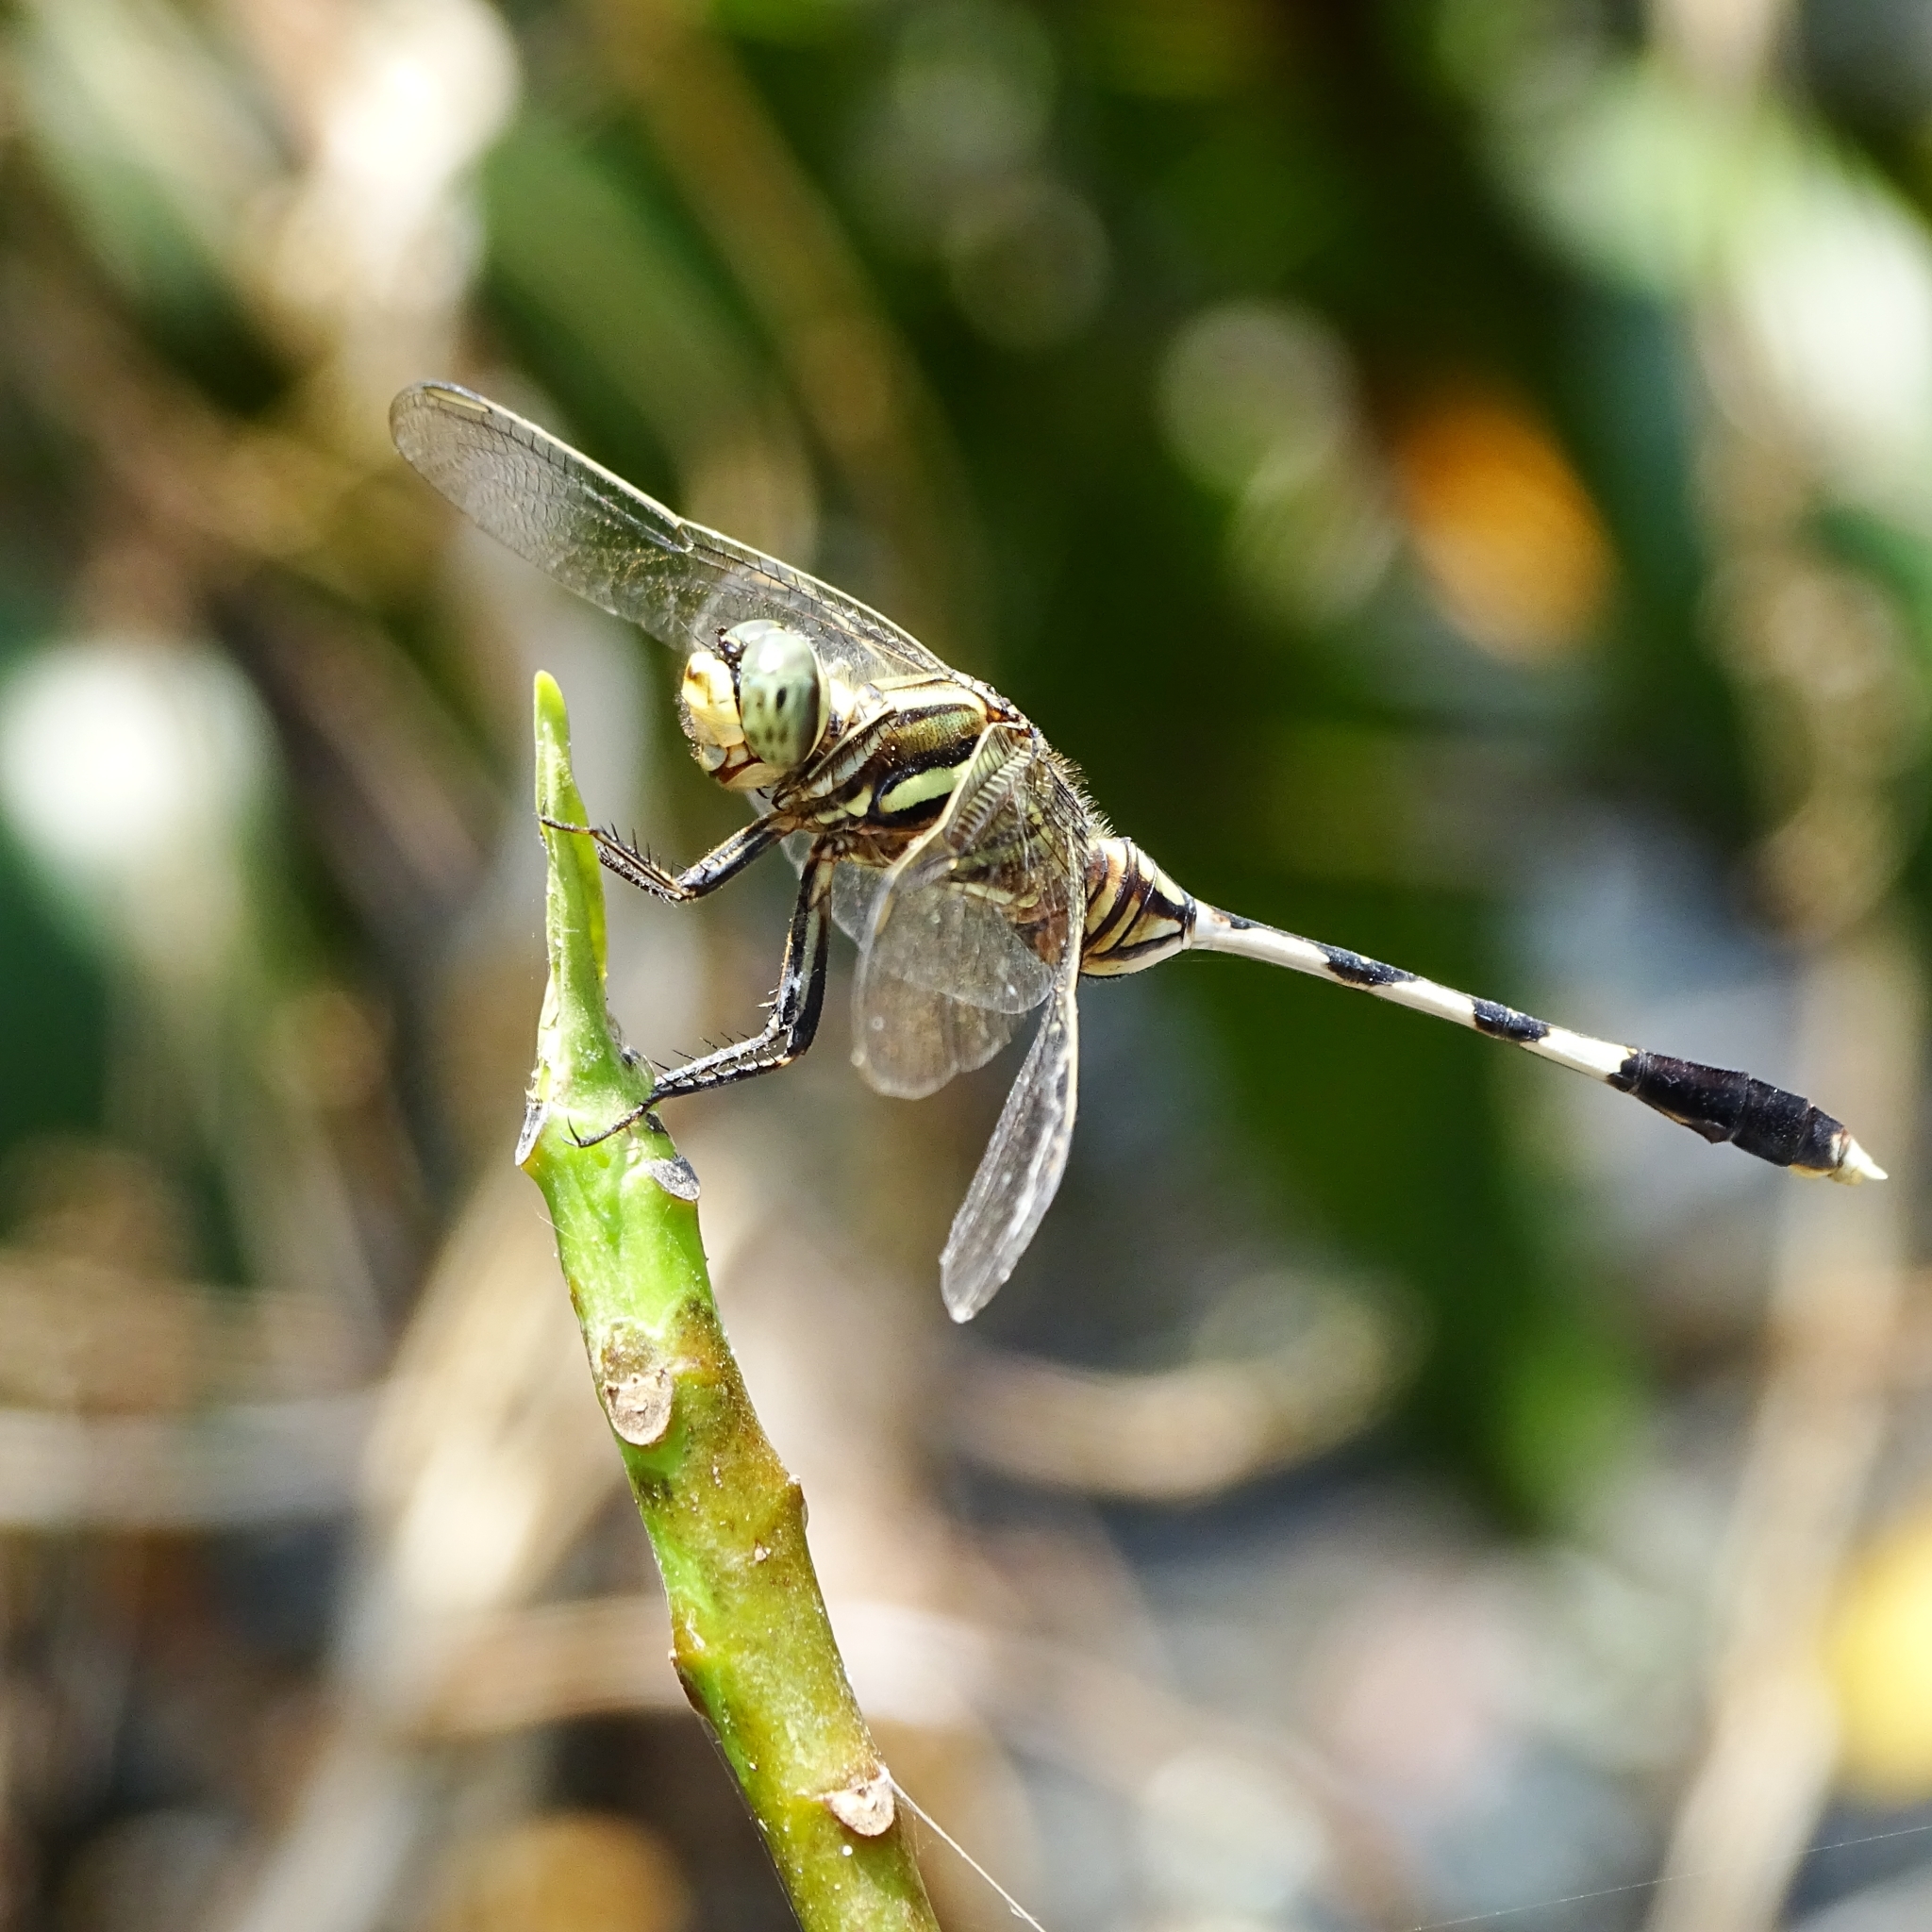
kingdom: Animalia
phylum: Arthropoda
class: Insecta
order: Odonata
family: Libellulidae
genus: Orthetrum
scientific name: Orthetrum sabina
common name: Slender skimmer
